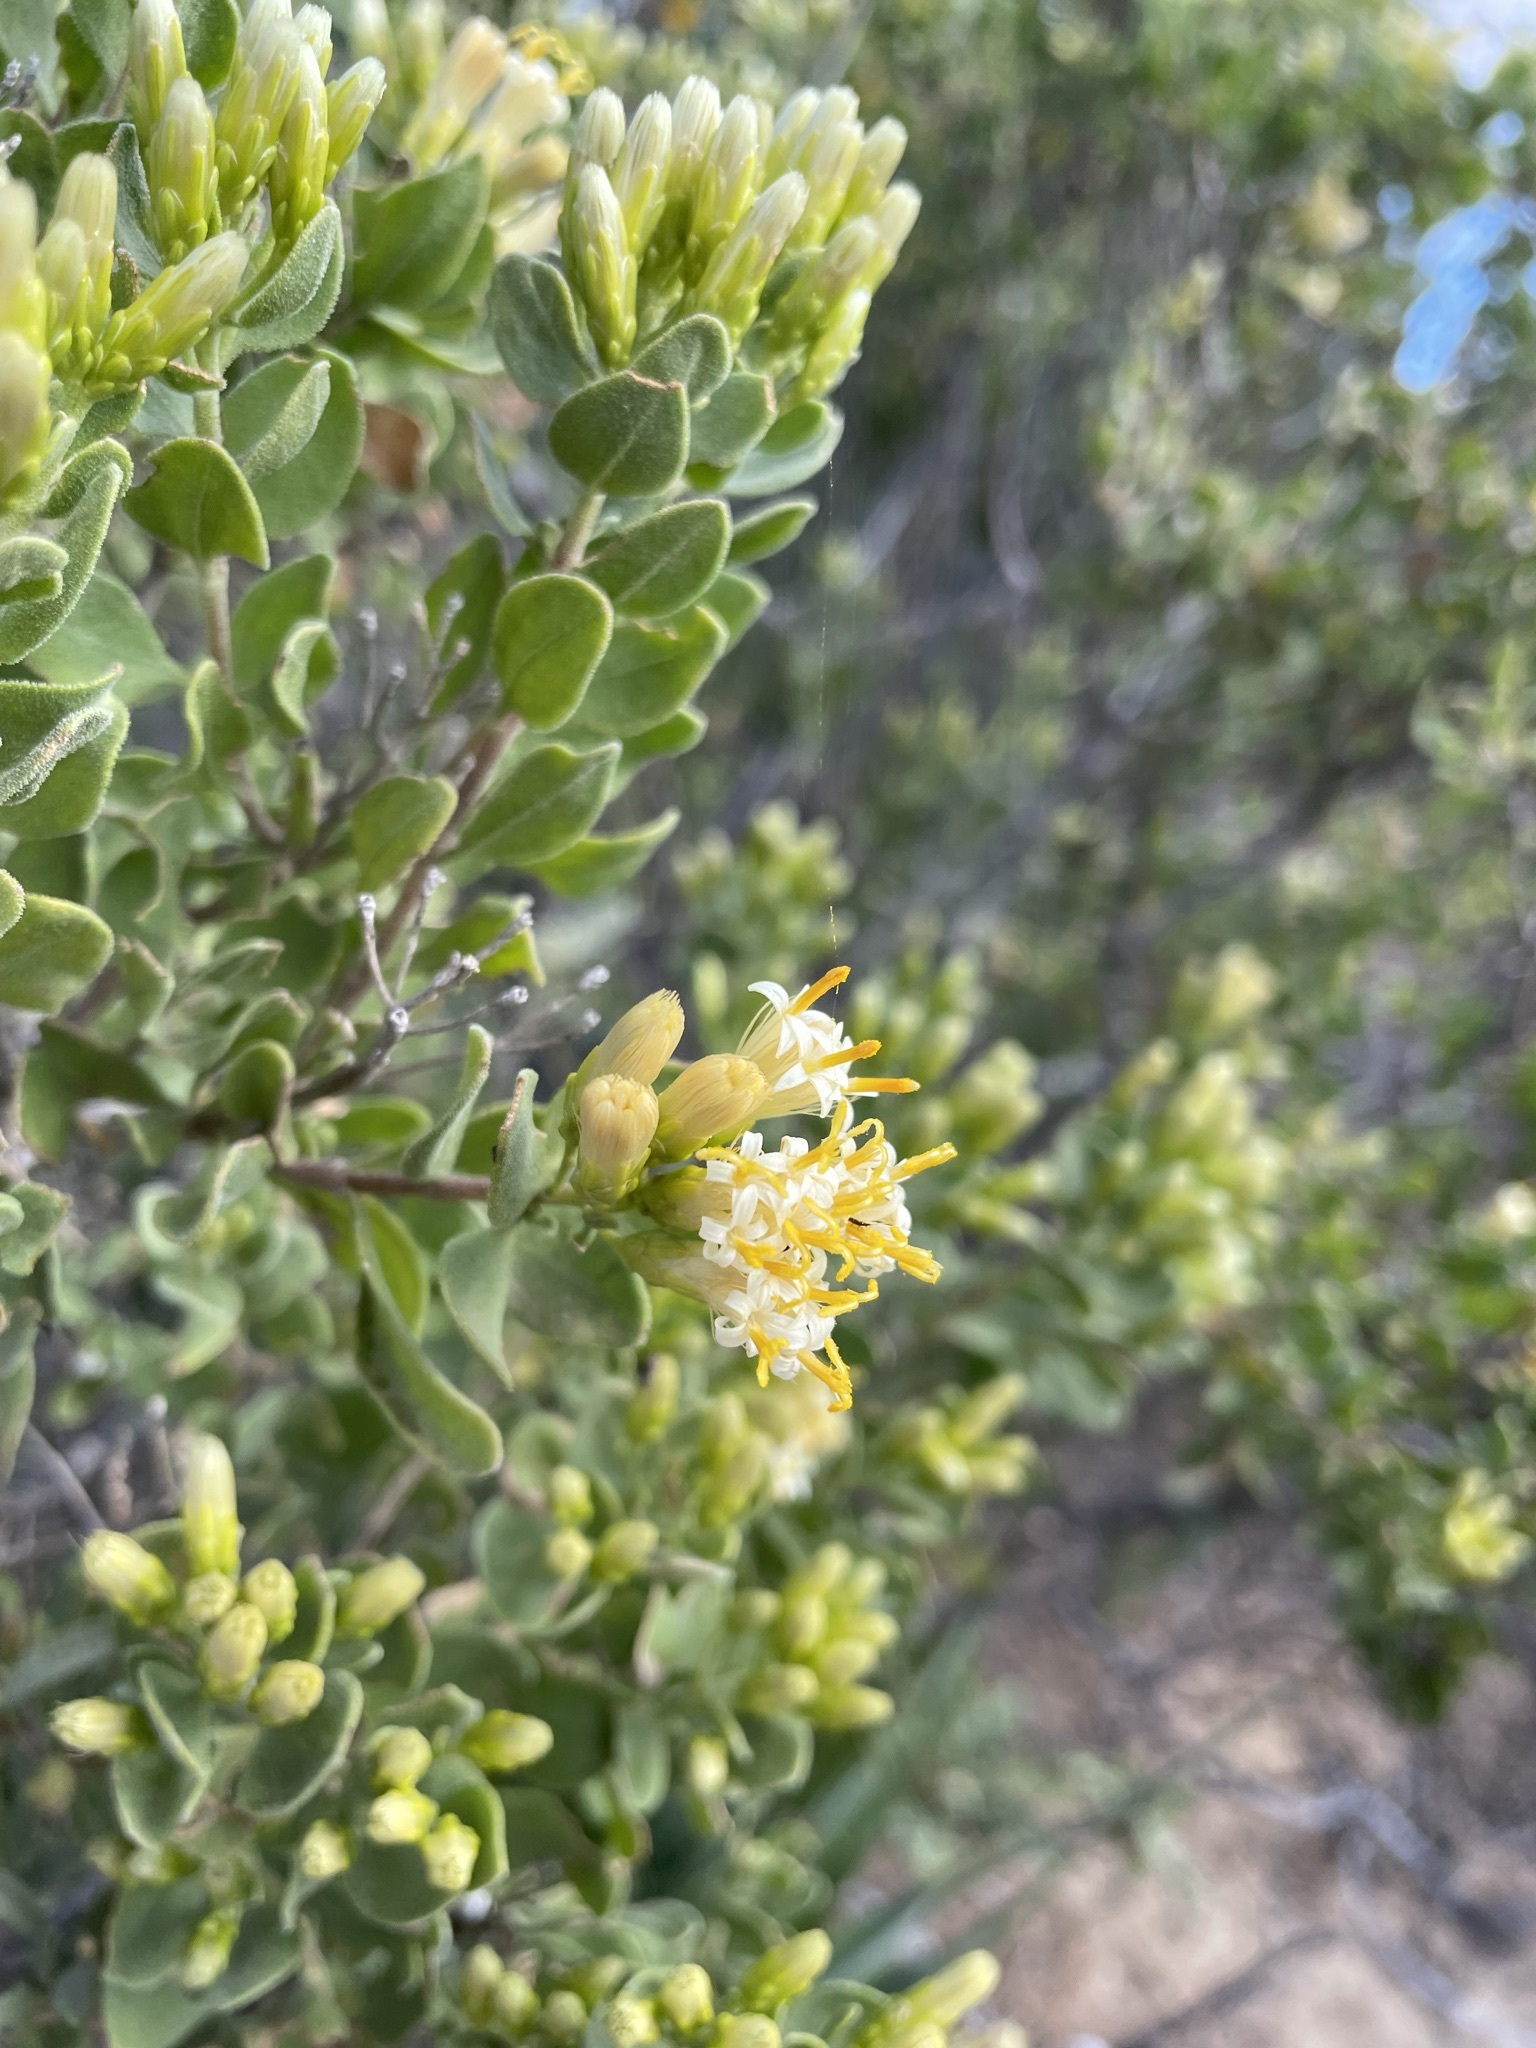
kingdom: Plantae
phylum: Tracheophyta
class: Magnoliopsida
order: Asterales
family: Asteraceae
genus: Pteronia
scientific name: Pteronia divaricata
